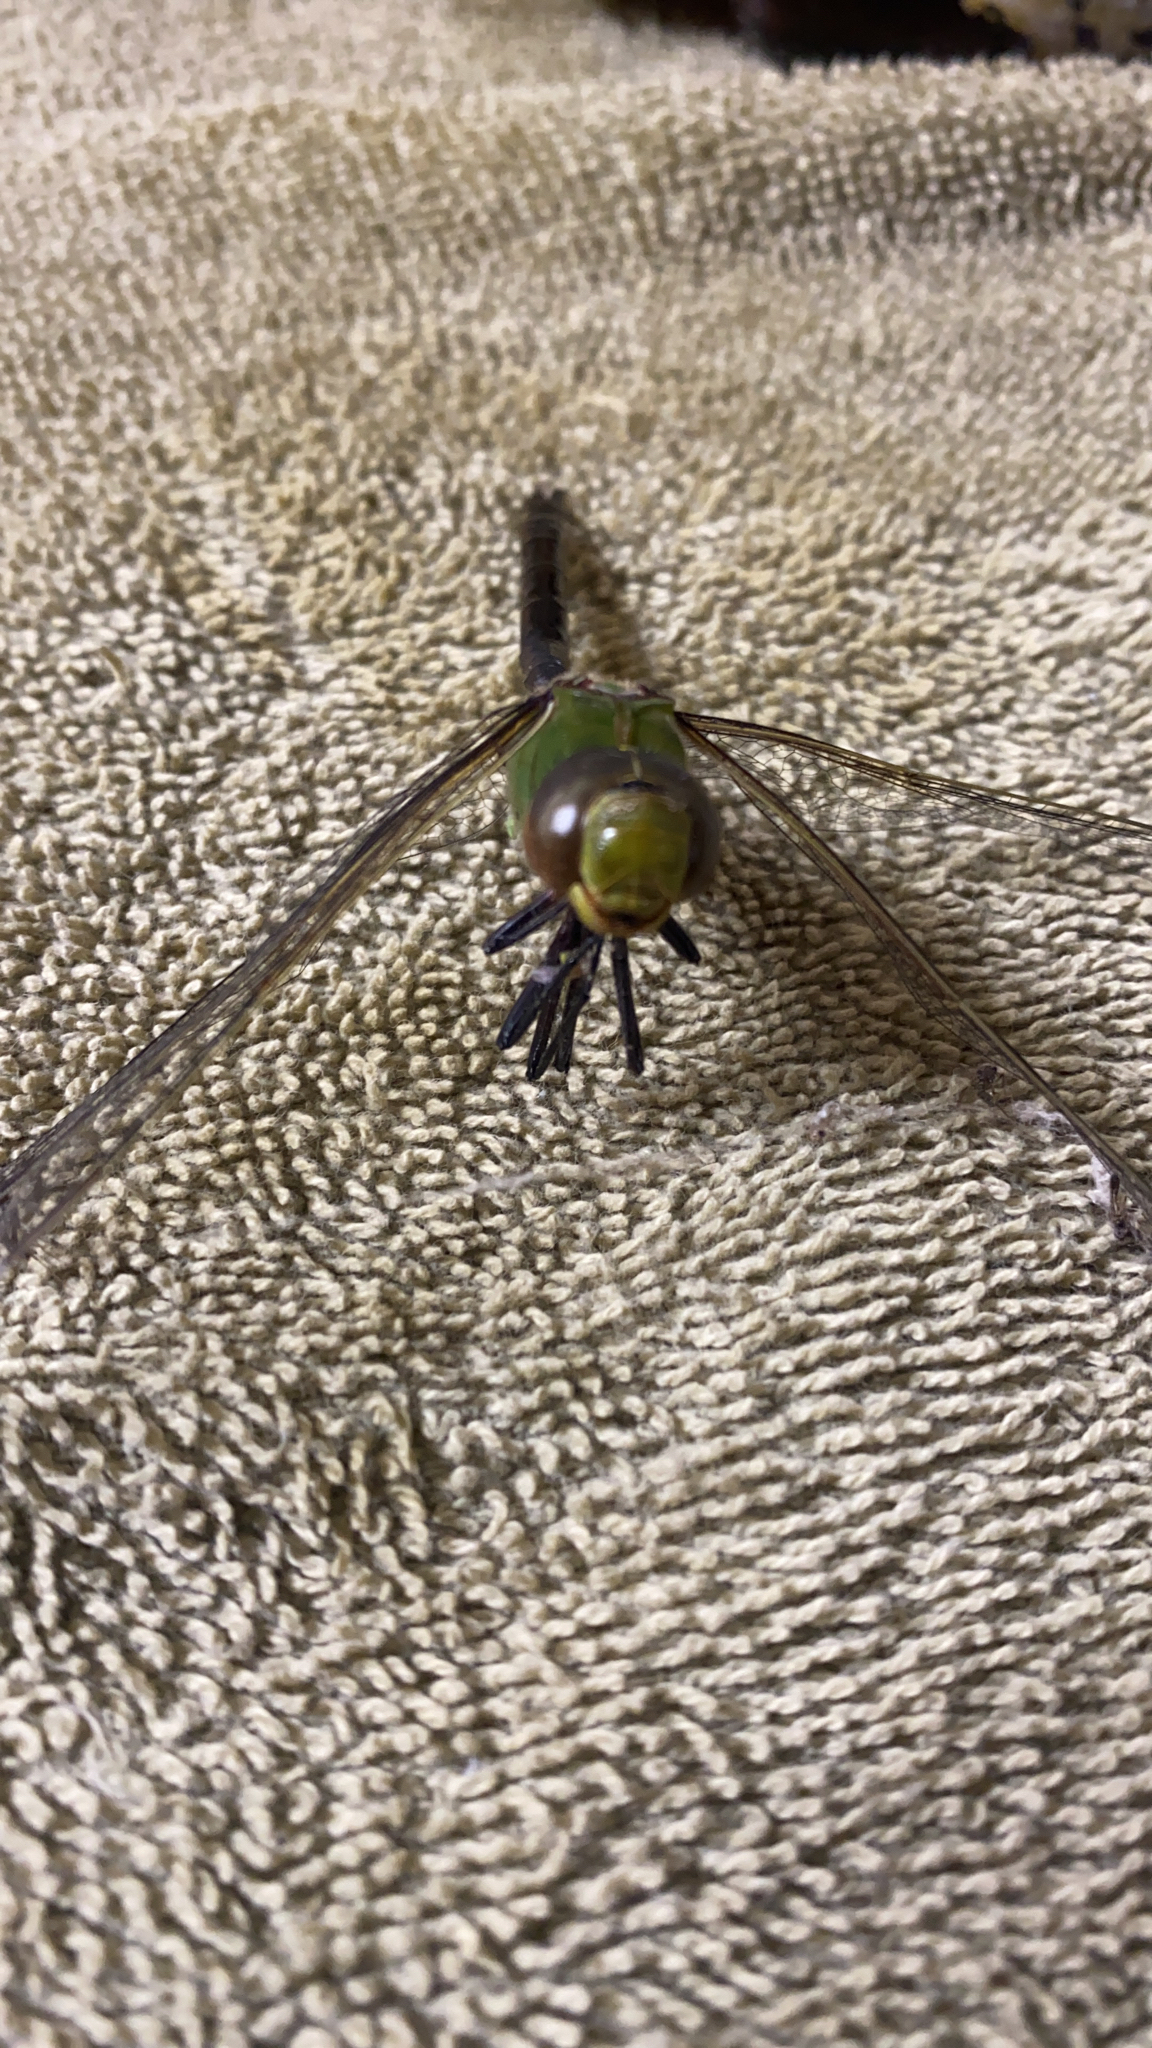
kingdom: Animalia
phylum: Arthropoda
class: Insecta
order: Odonata
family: Aeshnidae
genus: Anax
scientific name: Anax junius
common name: Common green darner
